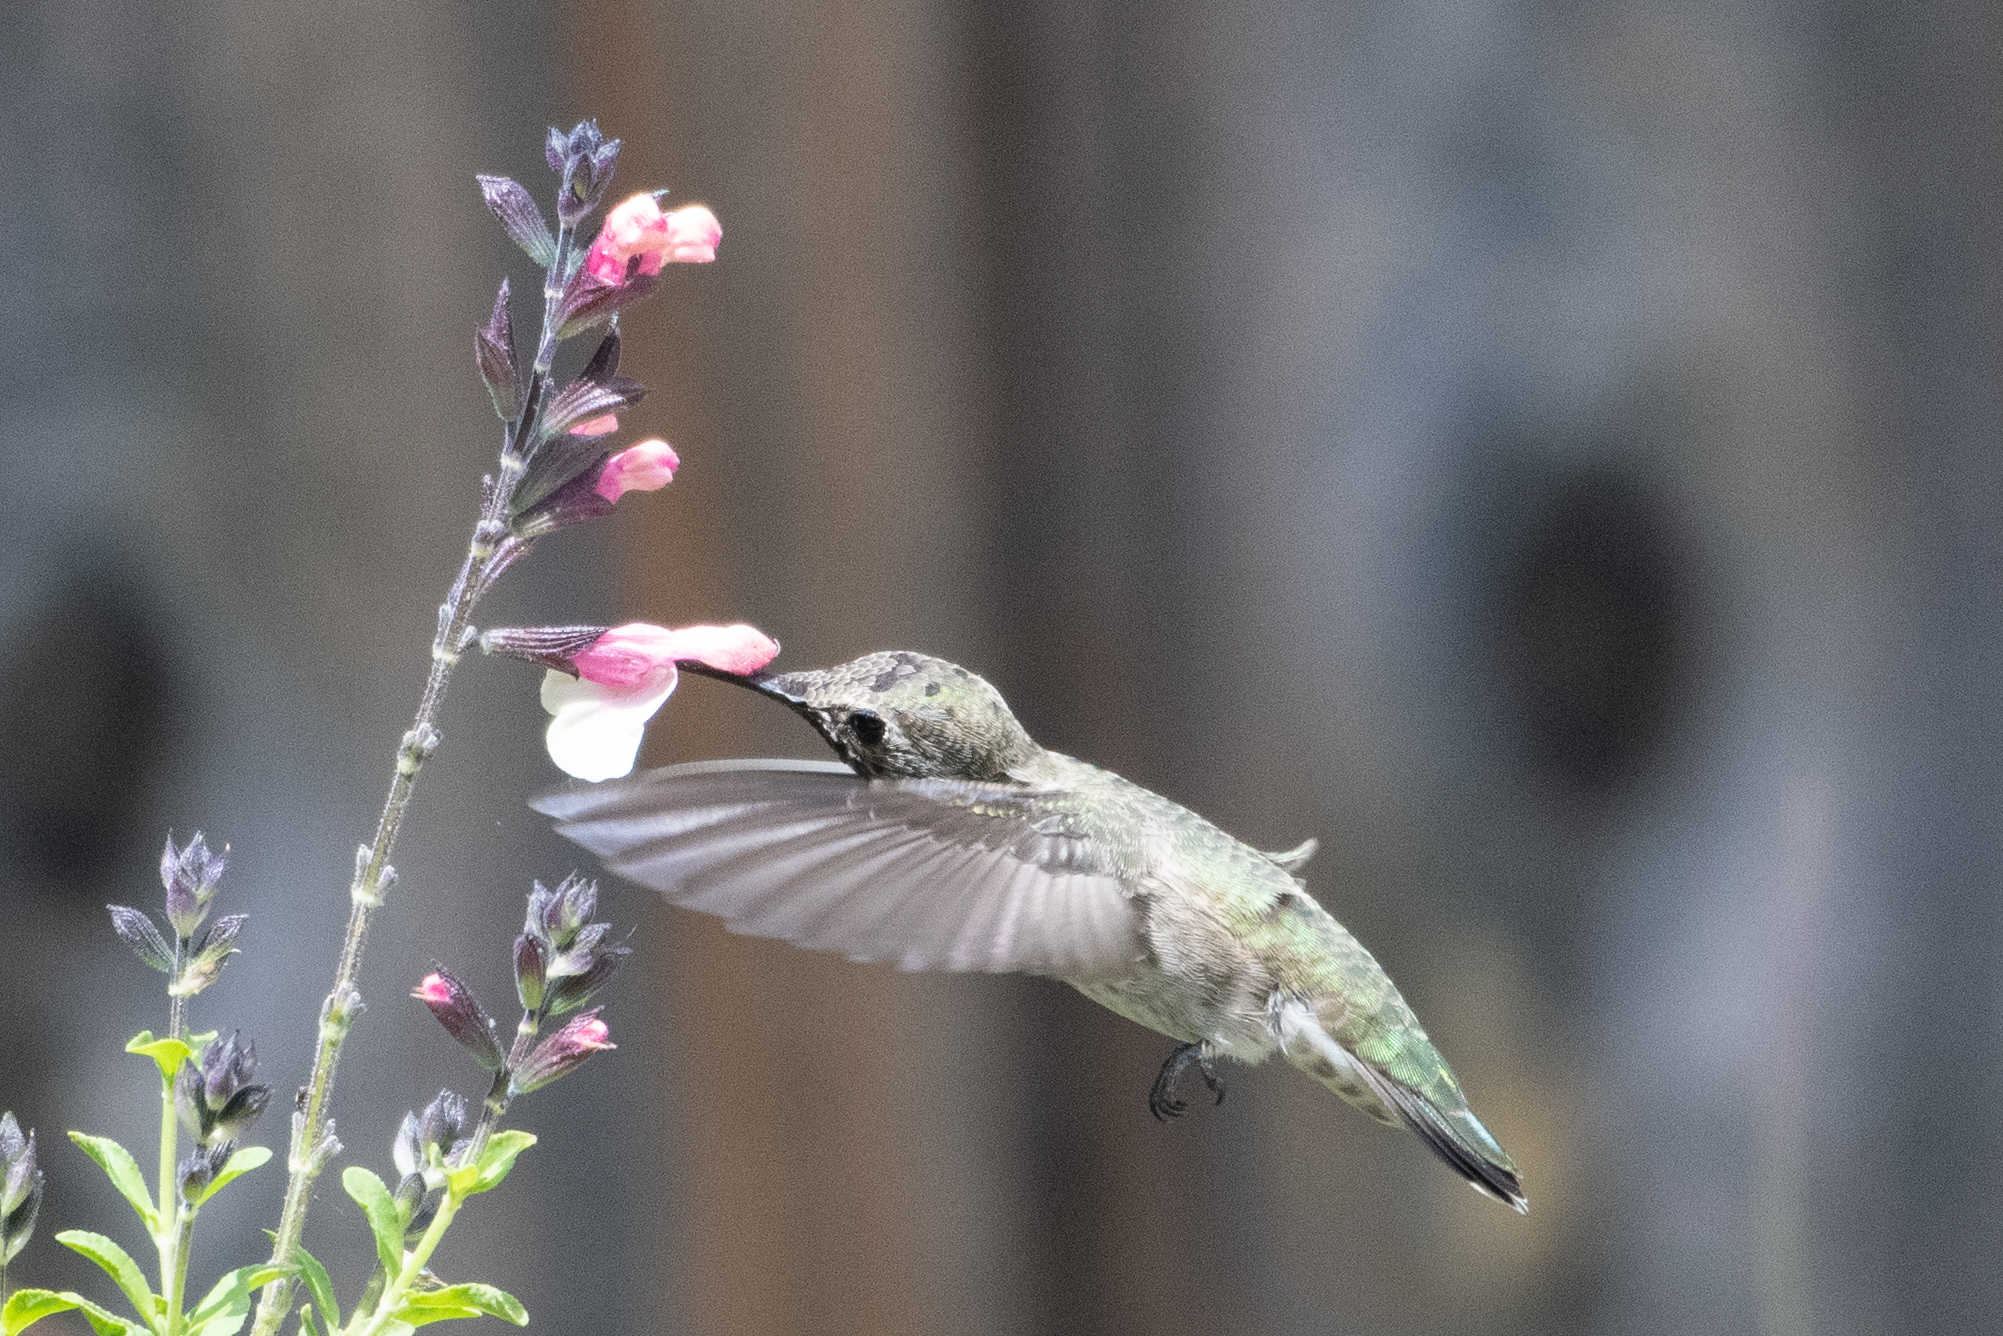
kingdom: Animalia
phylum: Chordata
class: Aves
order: Apodiformes
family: Trochilidae
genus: Calypte
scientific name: Calypte anna
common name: Anna's hummingbird
